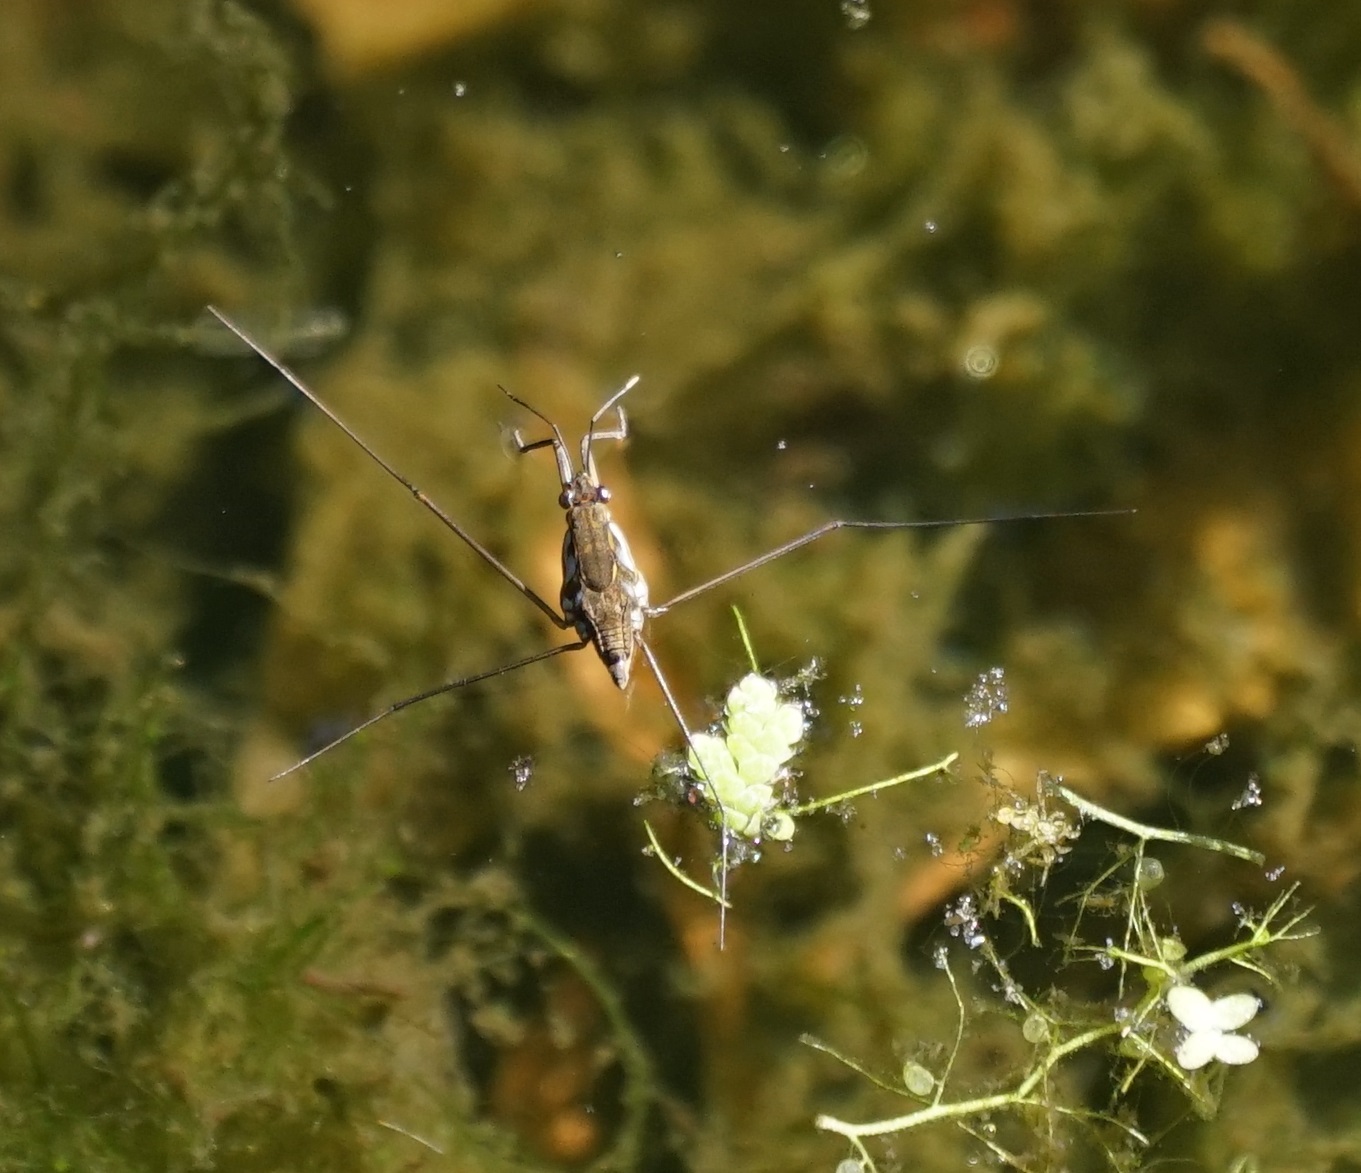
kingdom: Animalia
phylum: Arthropoda
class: Insecta
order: Hemiptera
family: Gerridae
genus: Tenagogerris
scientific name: Tenagogerris euphrosyne
